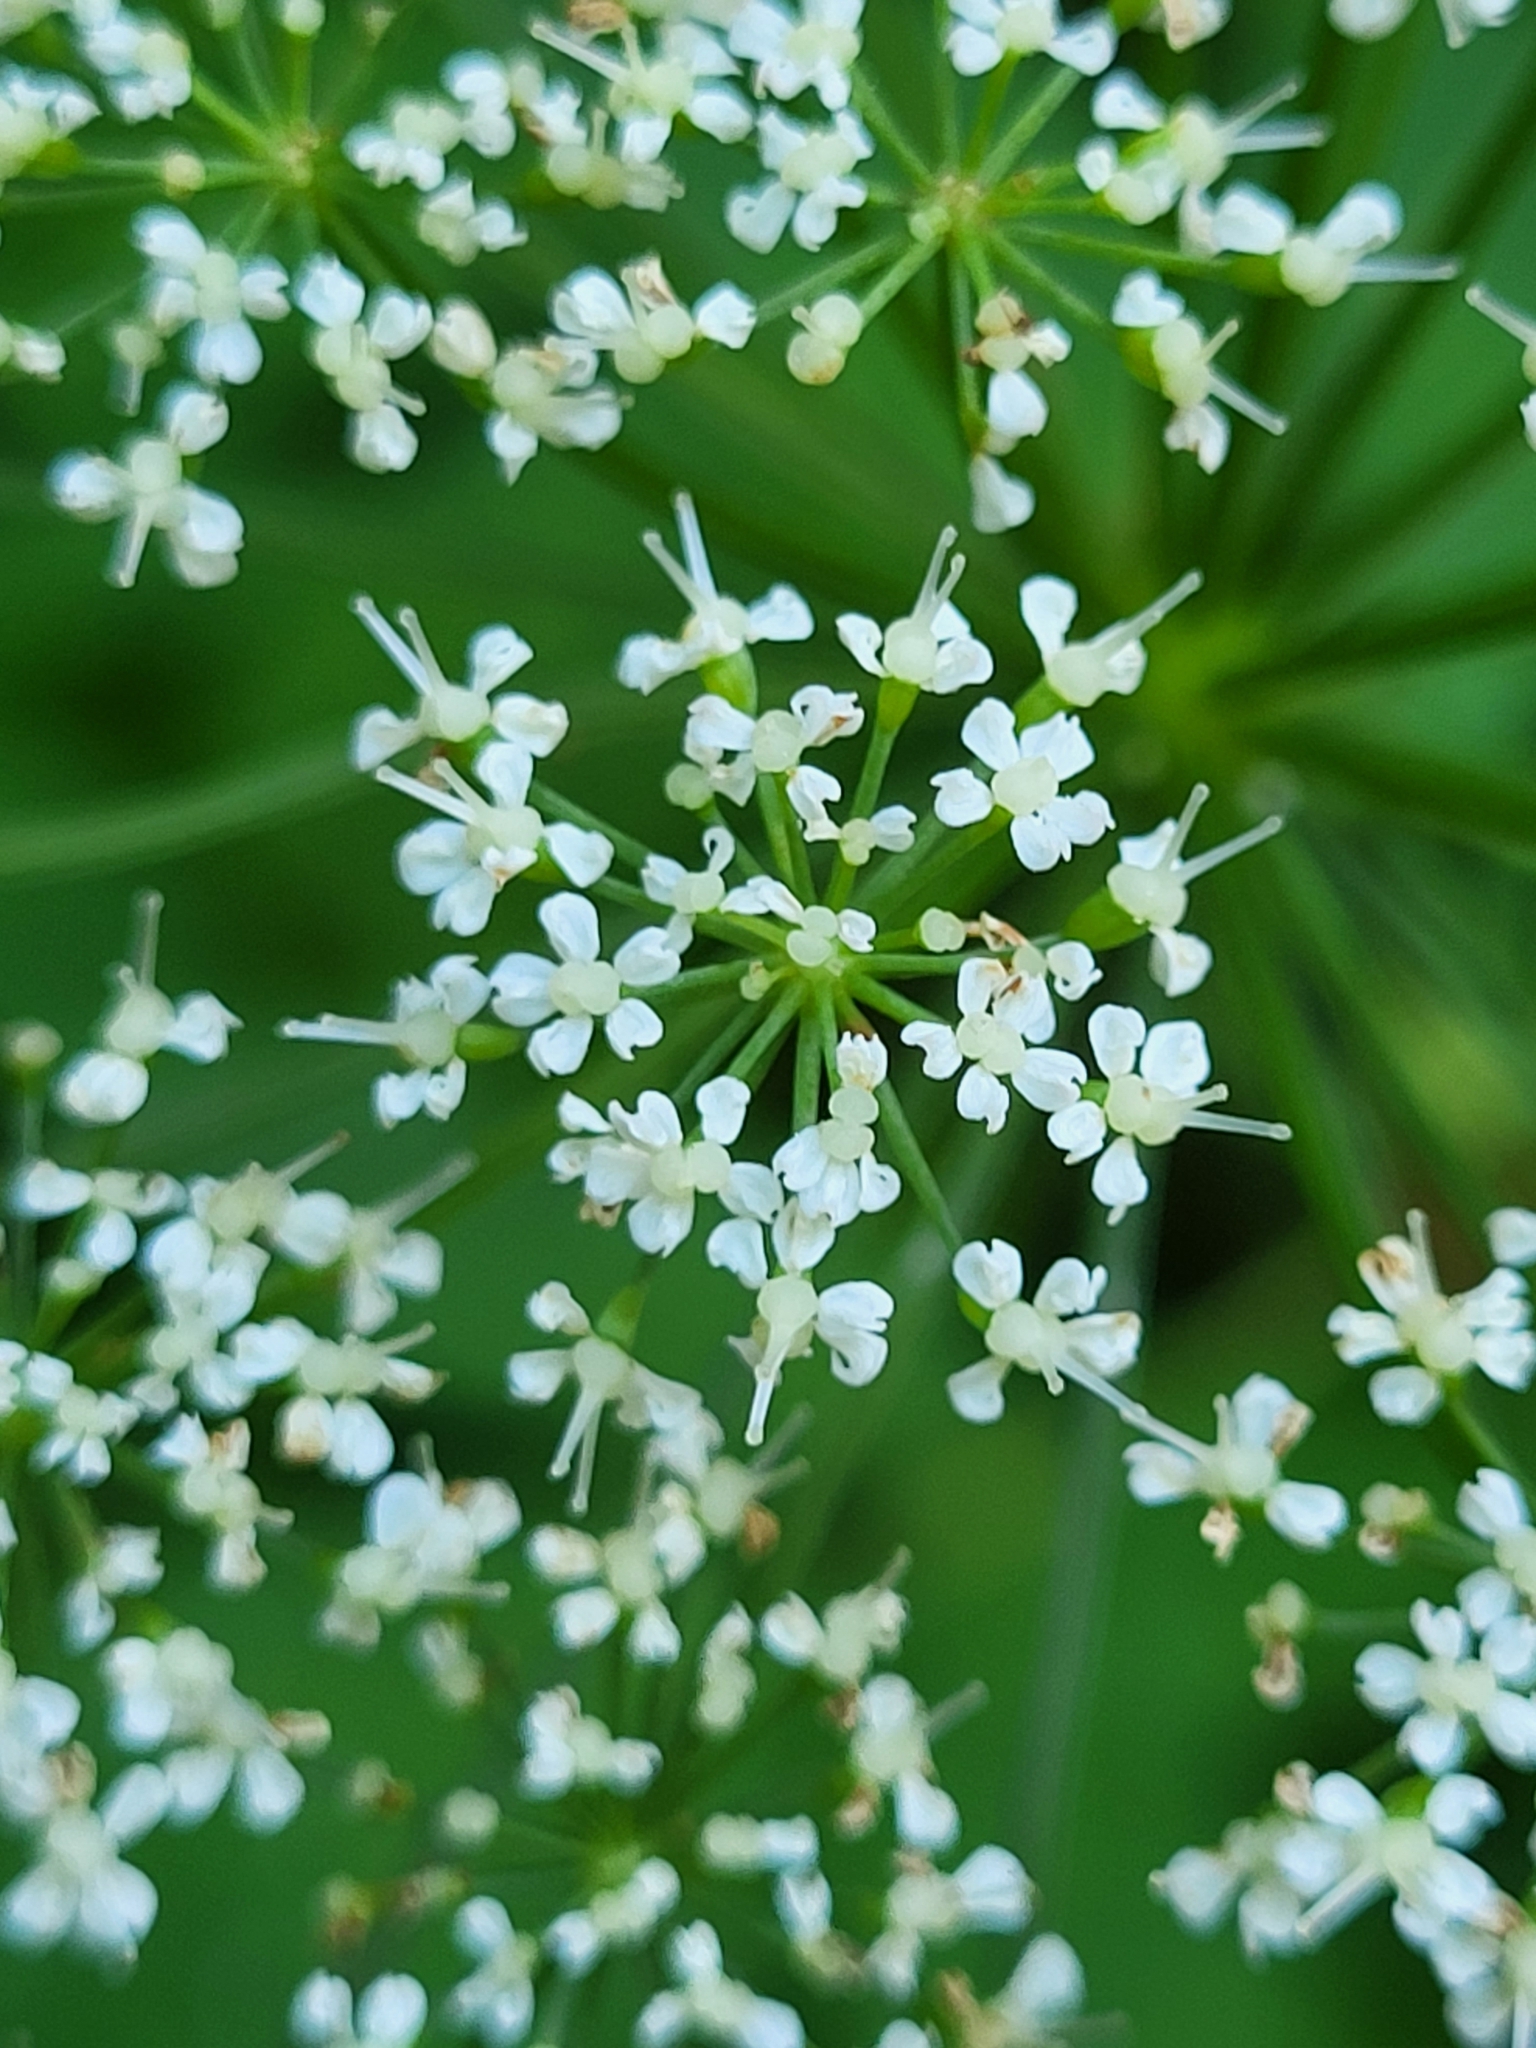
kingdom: Plantae
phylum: Tracheophyta
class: Magnoliopsida
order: Apiales
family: Apiaceae
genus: Aegopodium
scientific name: Aegopodium podagraria
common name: Ground-elder
